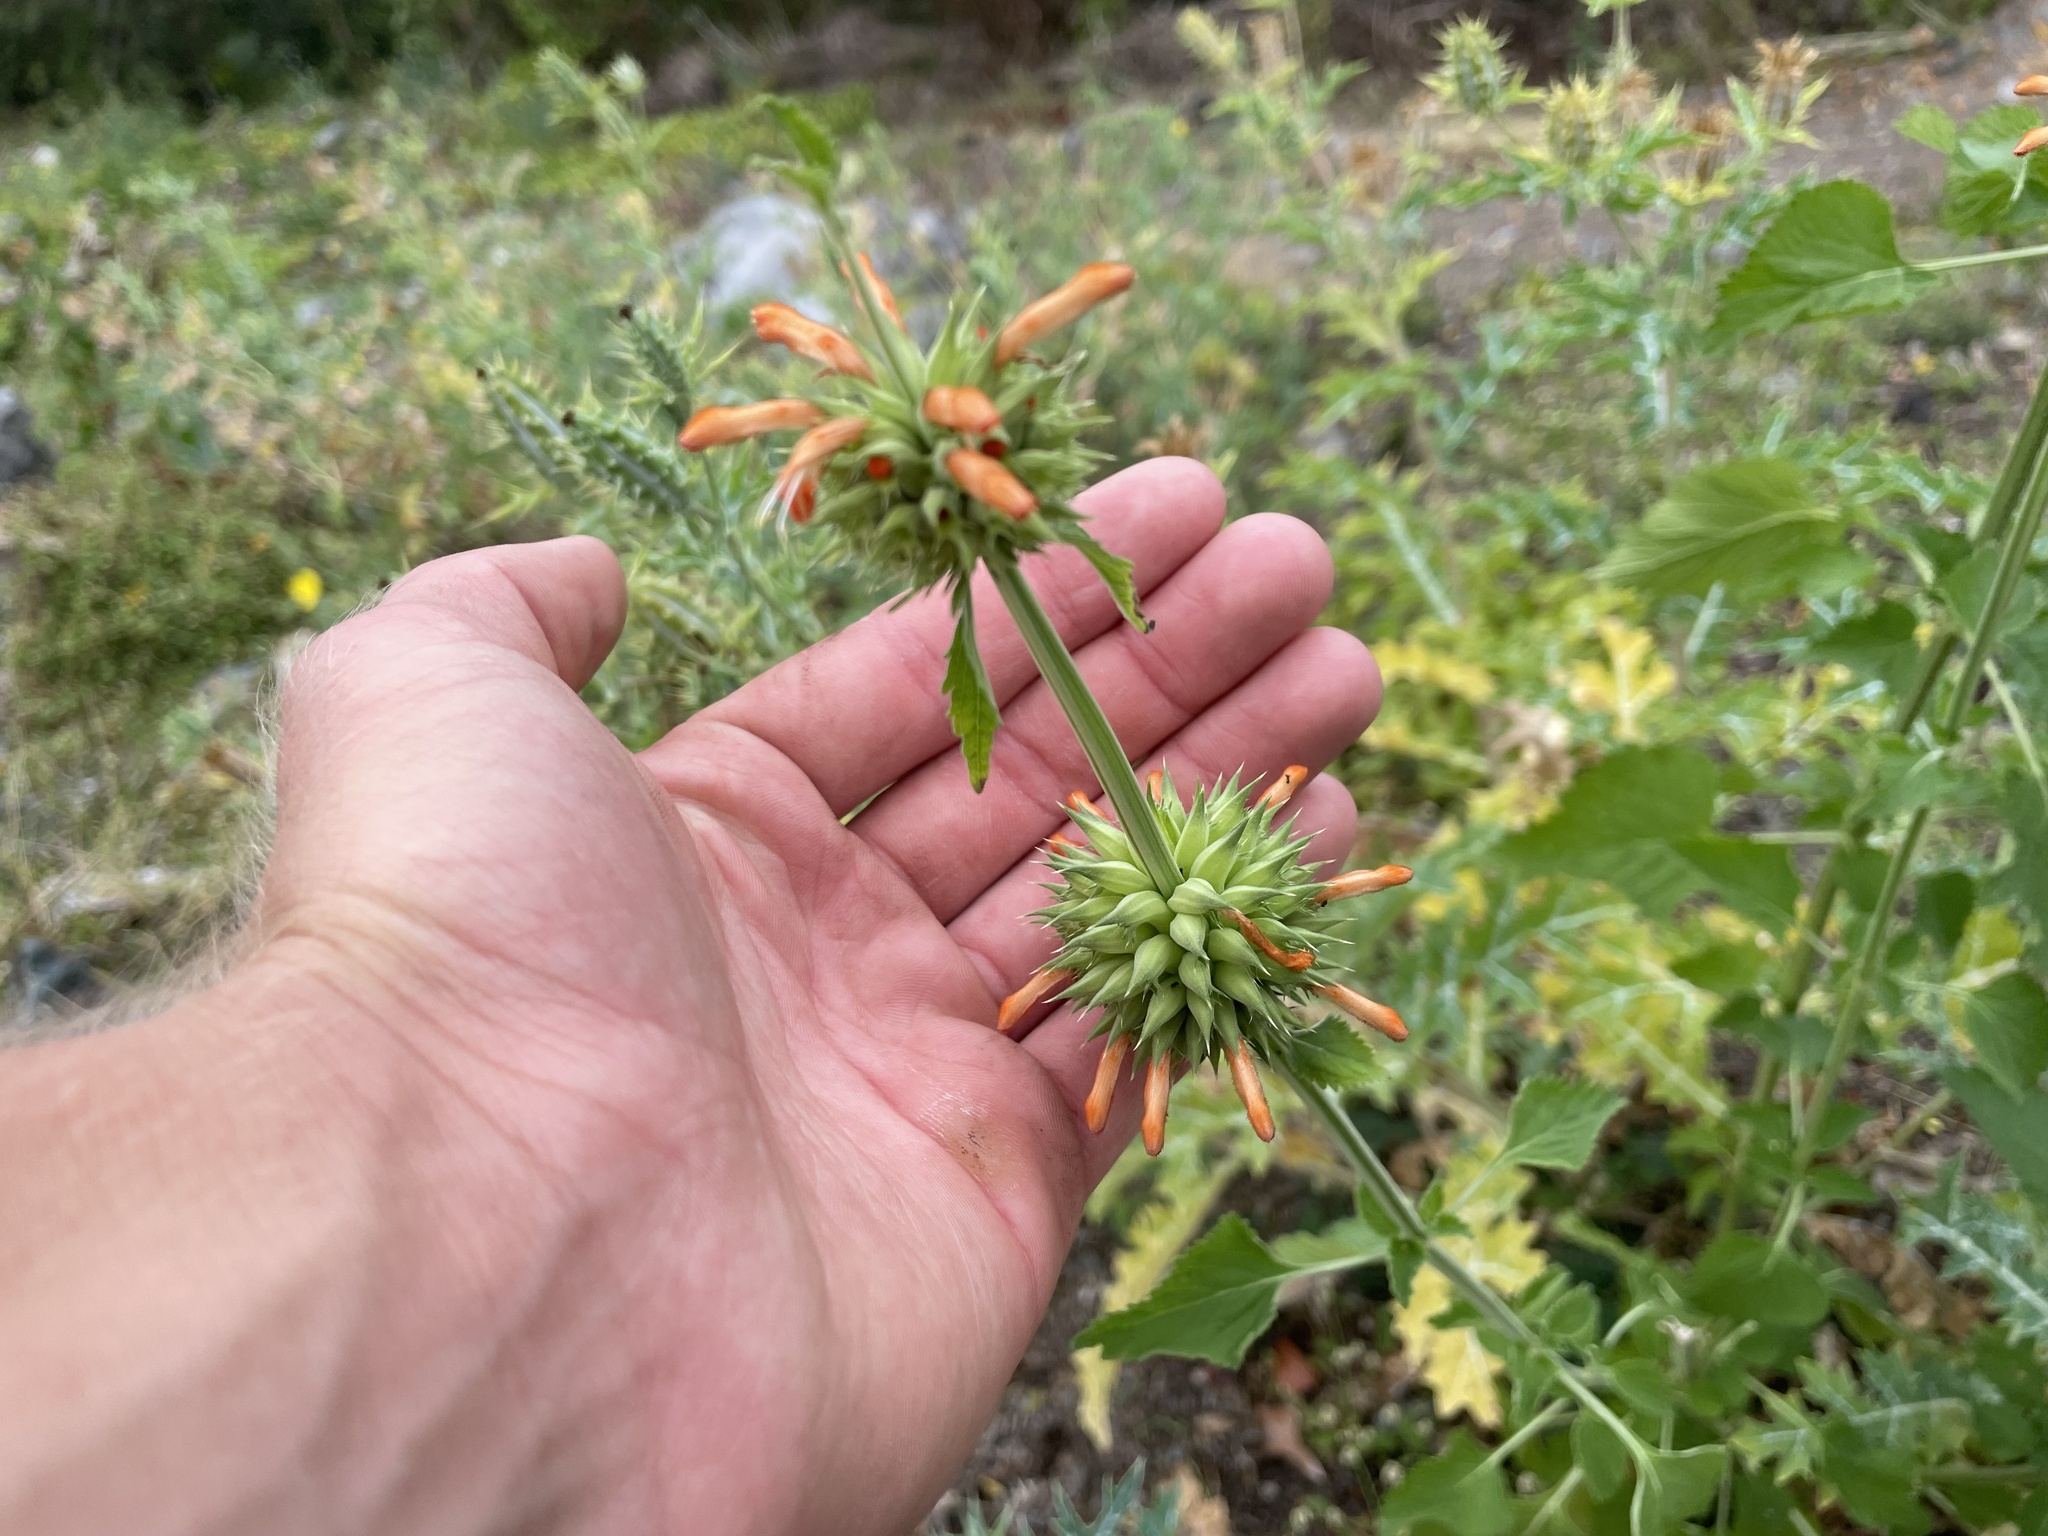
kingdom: Plantae
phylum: Tracheophyta
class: Magnoliopsida
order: Lamiales
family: Lamiaceae
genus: Leonotis
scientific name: Leonotis nepetifolia
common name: Christmas candlestick
